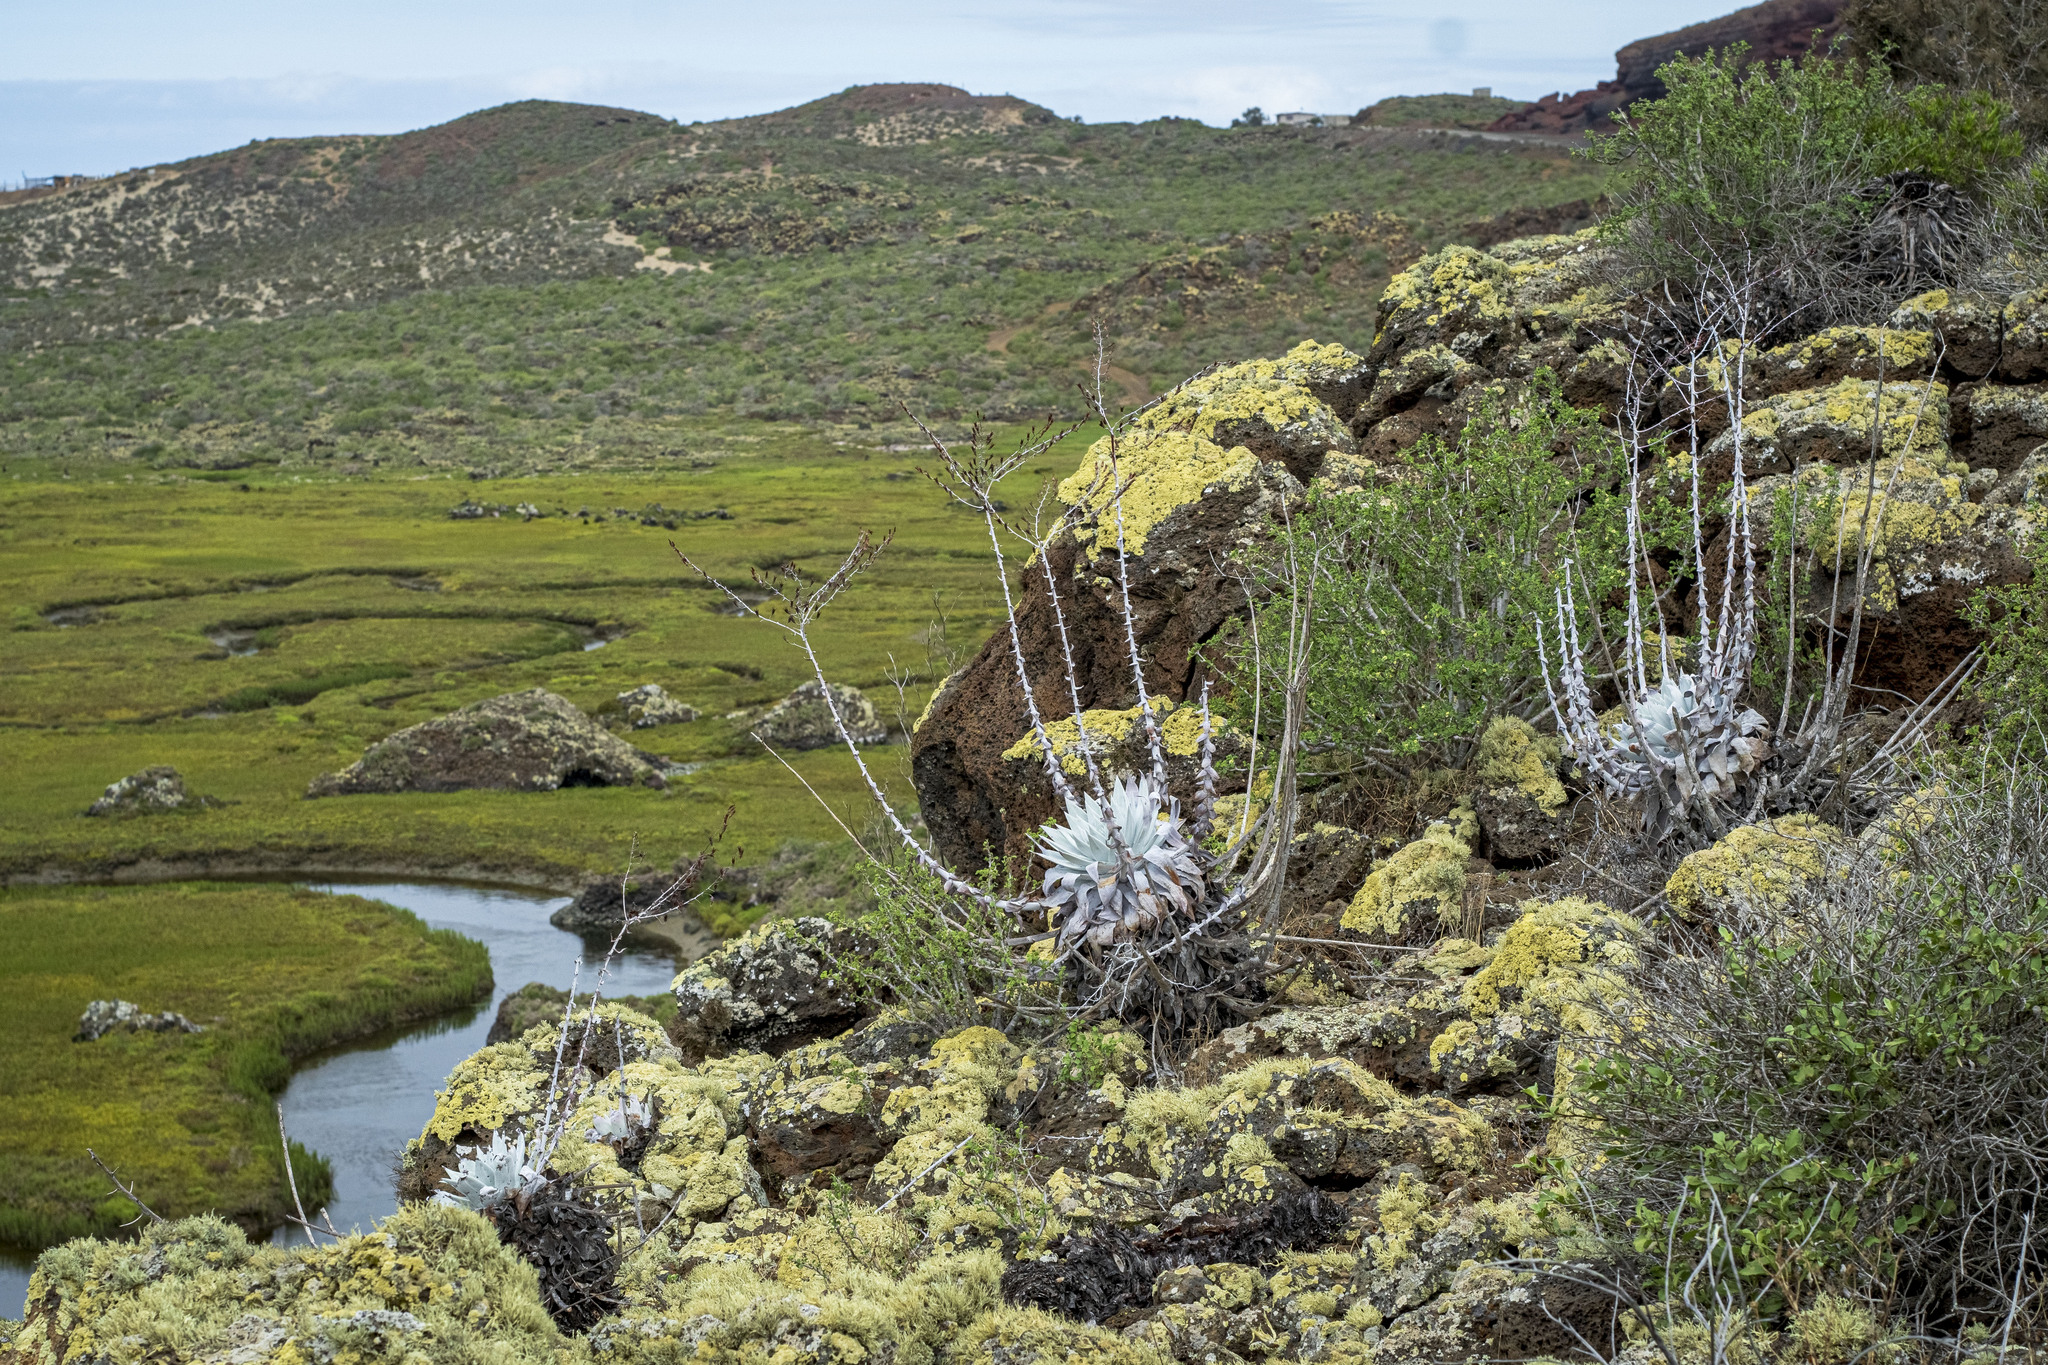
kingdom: Plantae
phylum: Tracheophyta
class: Magnoliopsida
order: Saxifragales
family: Crassulaceae
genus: Dudleya
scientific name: Dudleya anthonyi
